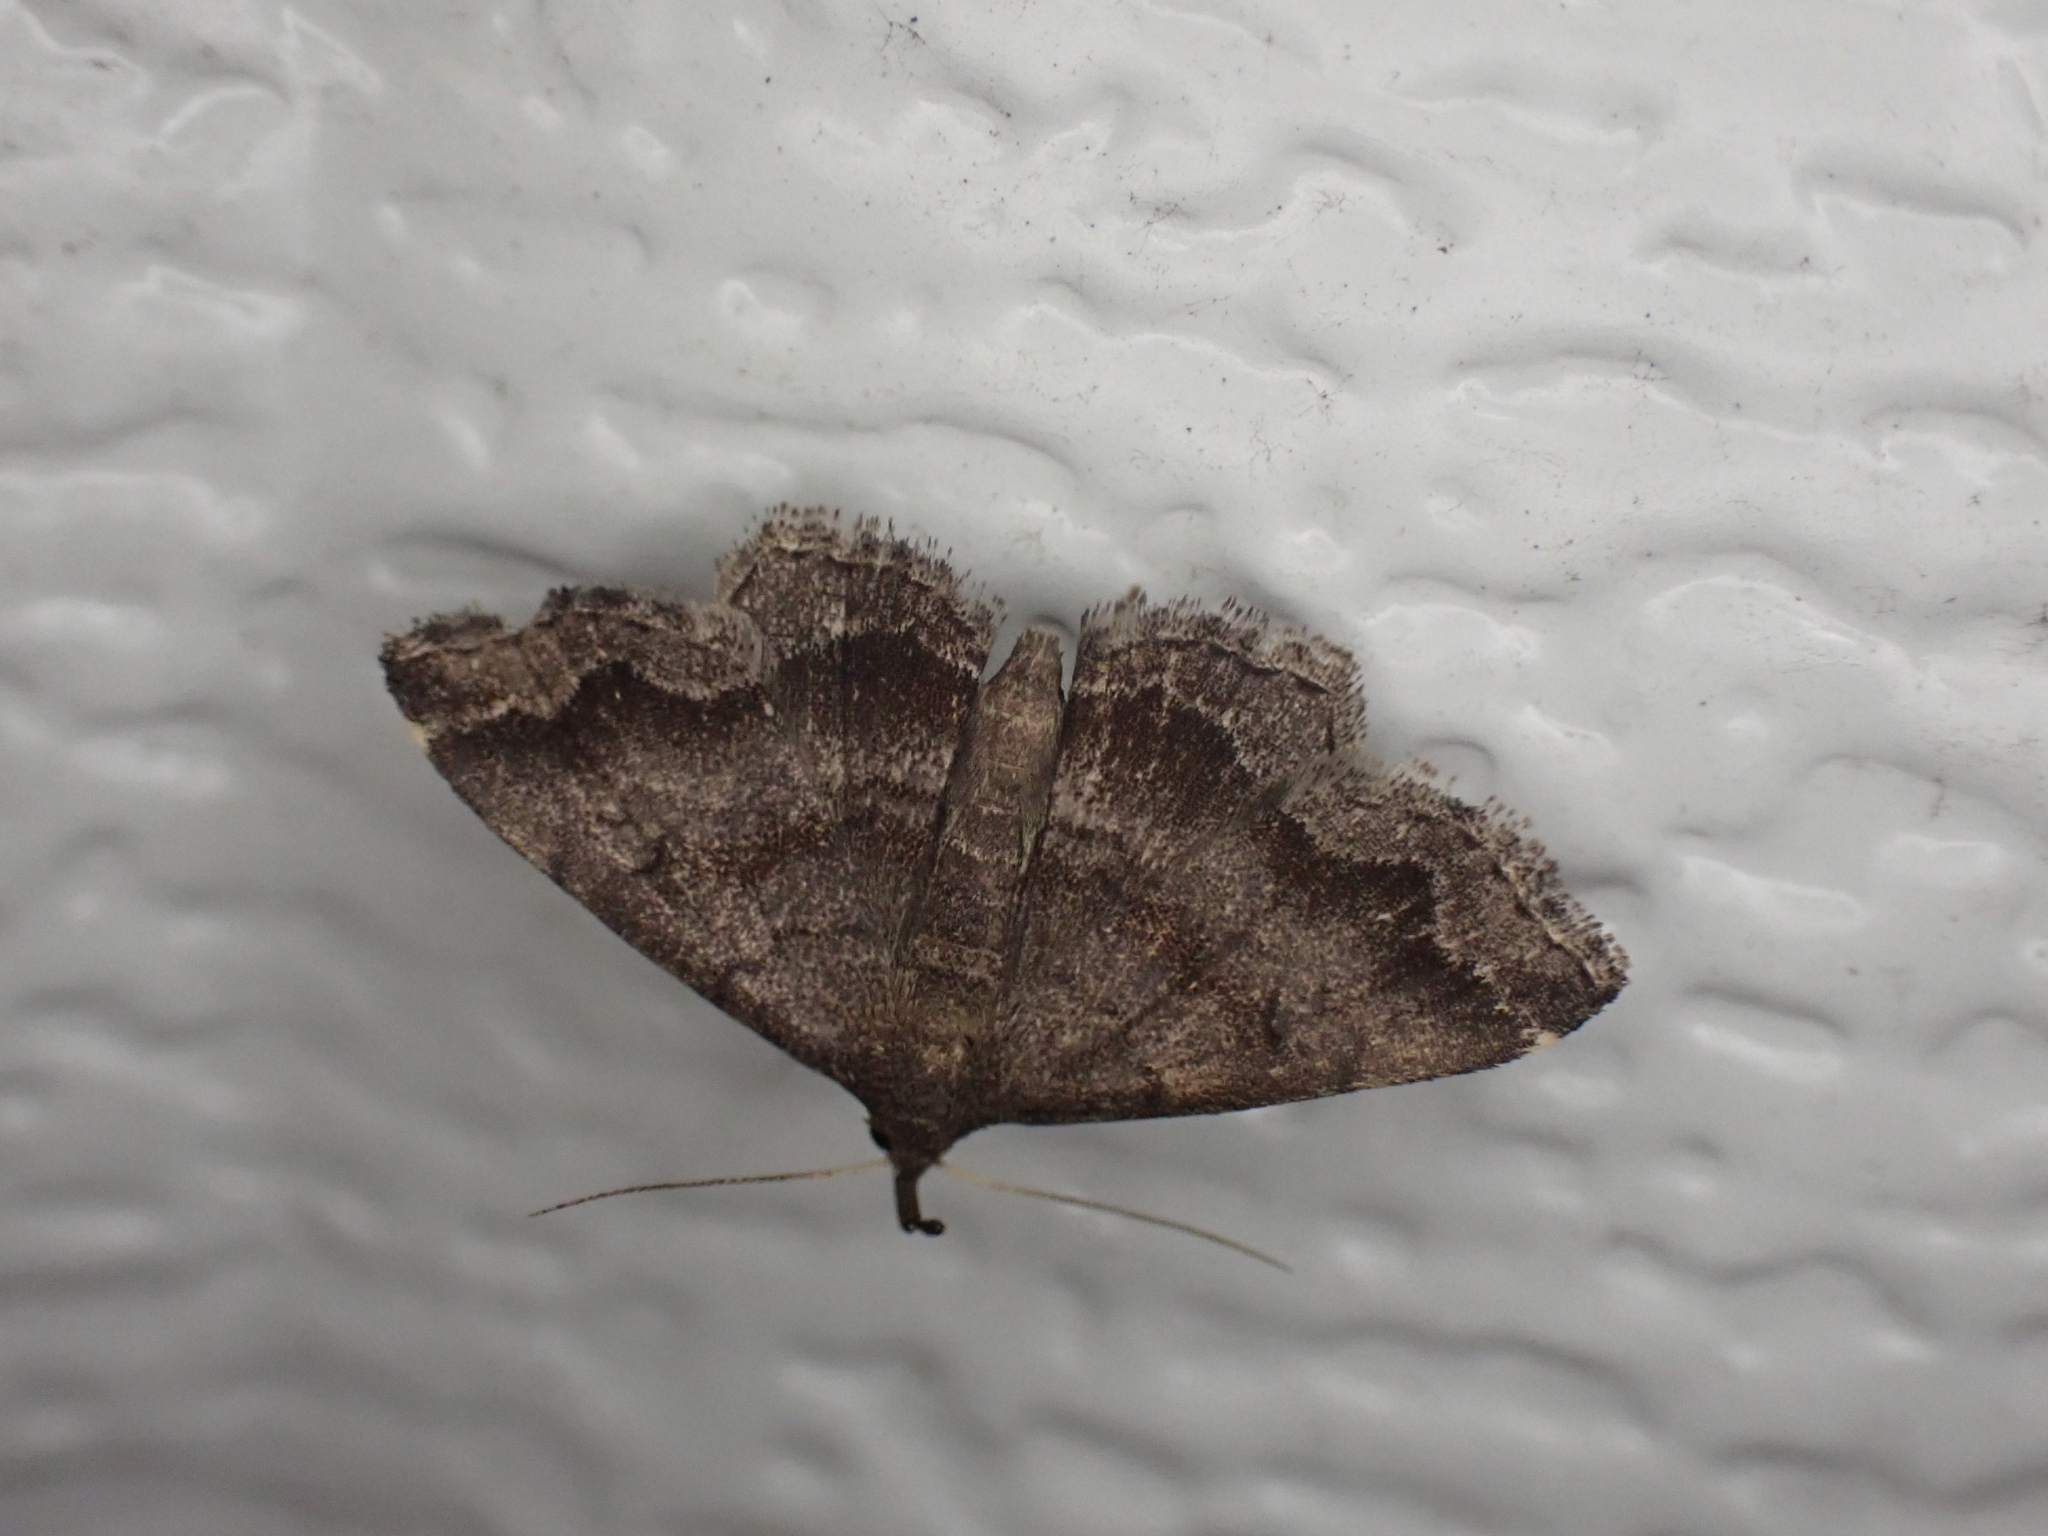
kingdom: Animalia
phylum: Arthropoda
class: Insecta
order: Lepidoptera
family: Erebidae
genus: Phalaenostola
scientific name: Phalaenostola larentioides
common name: Black-banded owlet
